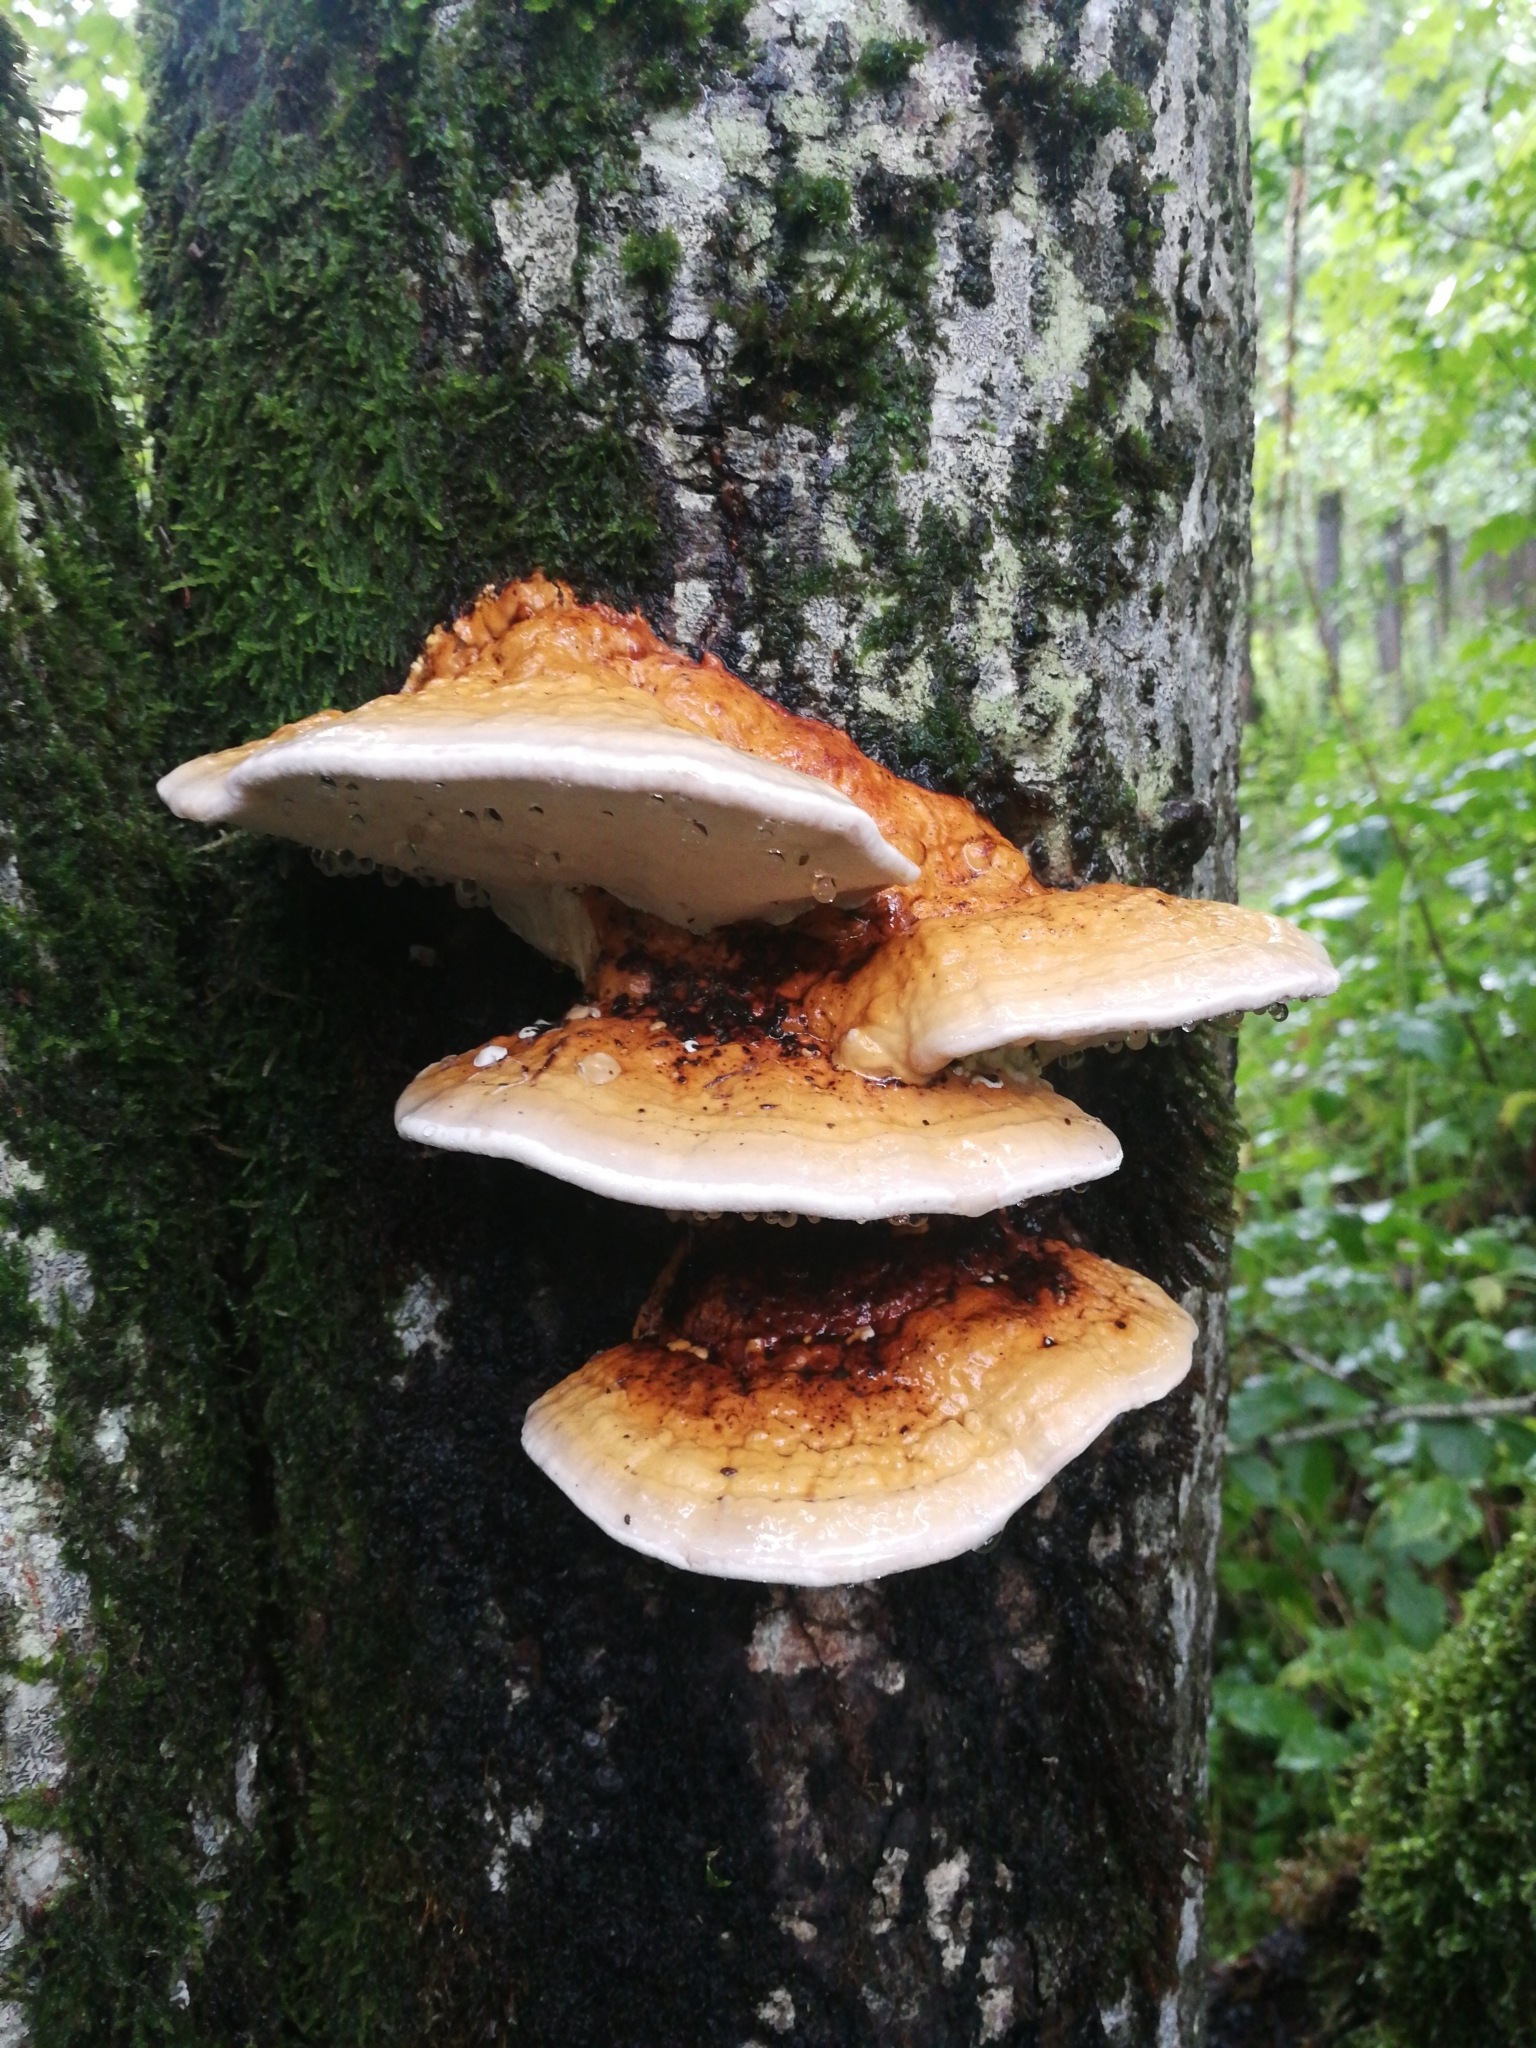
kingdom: Fungi
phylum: Basidiomycota
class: Agaricomycetes
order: Polyporales
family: Fomitopsidaceae
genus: Fomitopsis
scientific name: Fomitopsis pinicola
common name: Red-belted bracket
